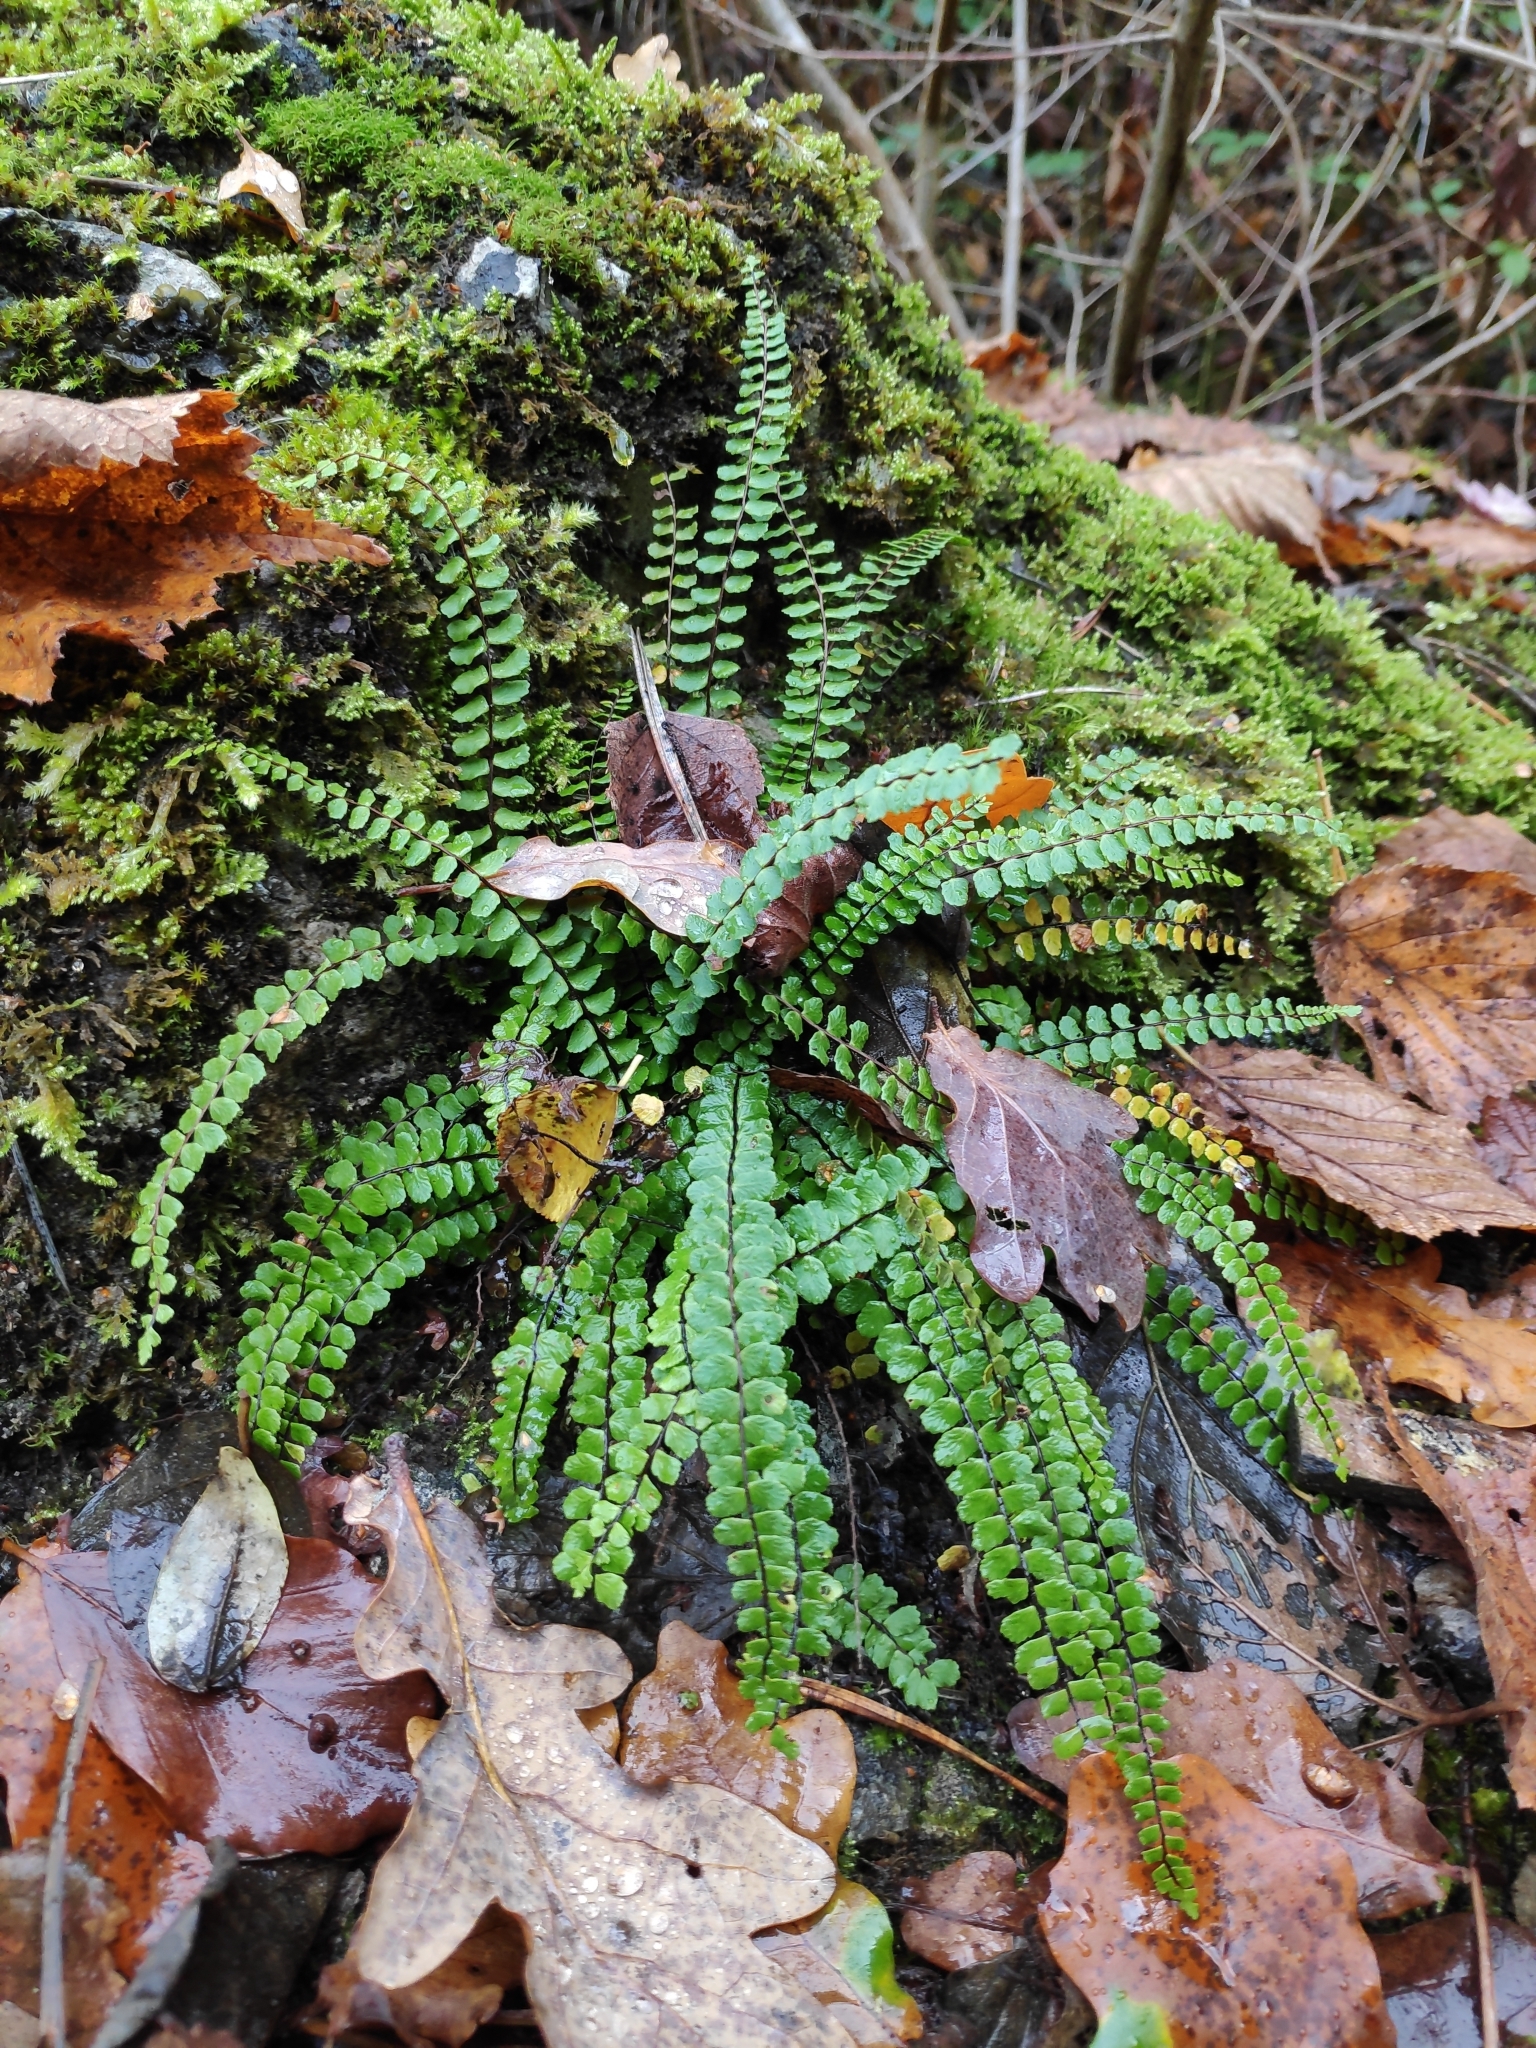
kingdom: Plantae
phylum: Tracheophyta
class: Polypodiopsida
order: Polypodiales
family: Aspleniaceae
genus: Asplenium
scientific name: Asplenium trichomanes
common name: Maidenhair spleenwort
